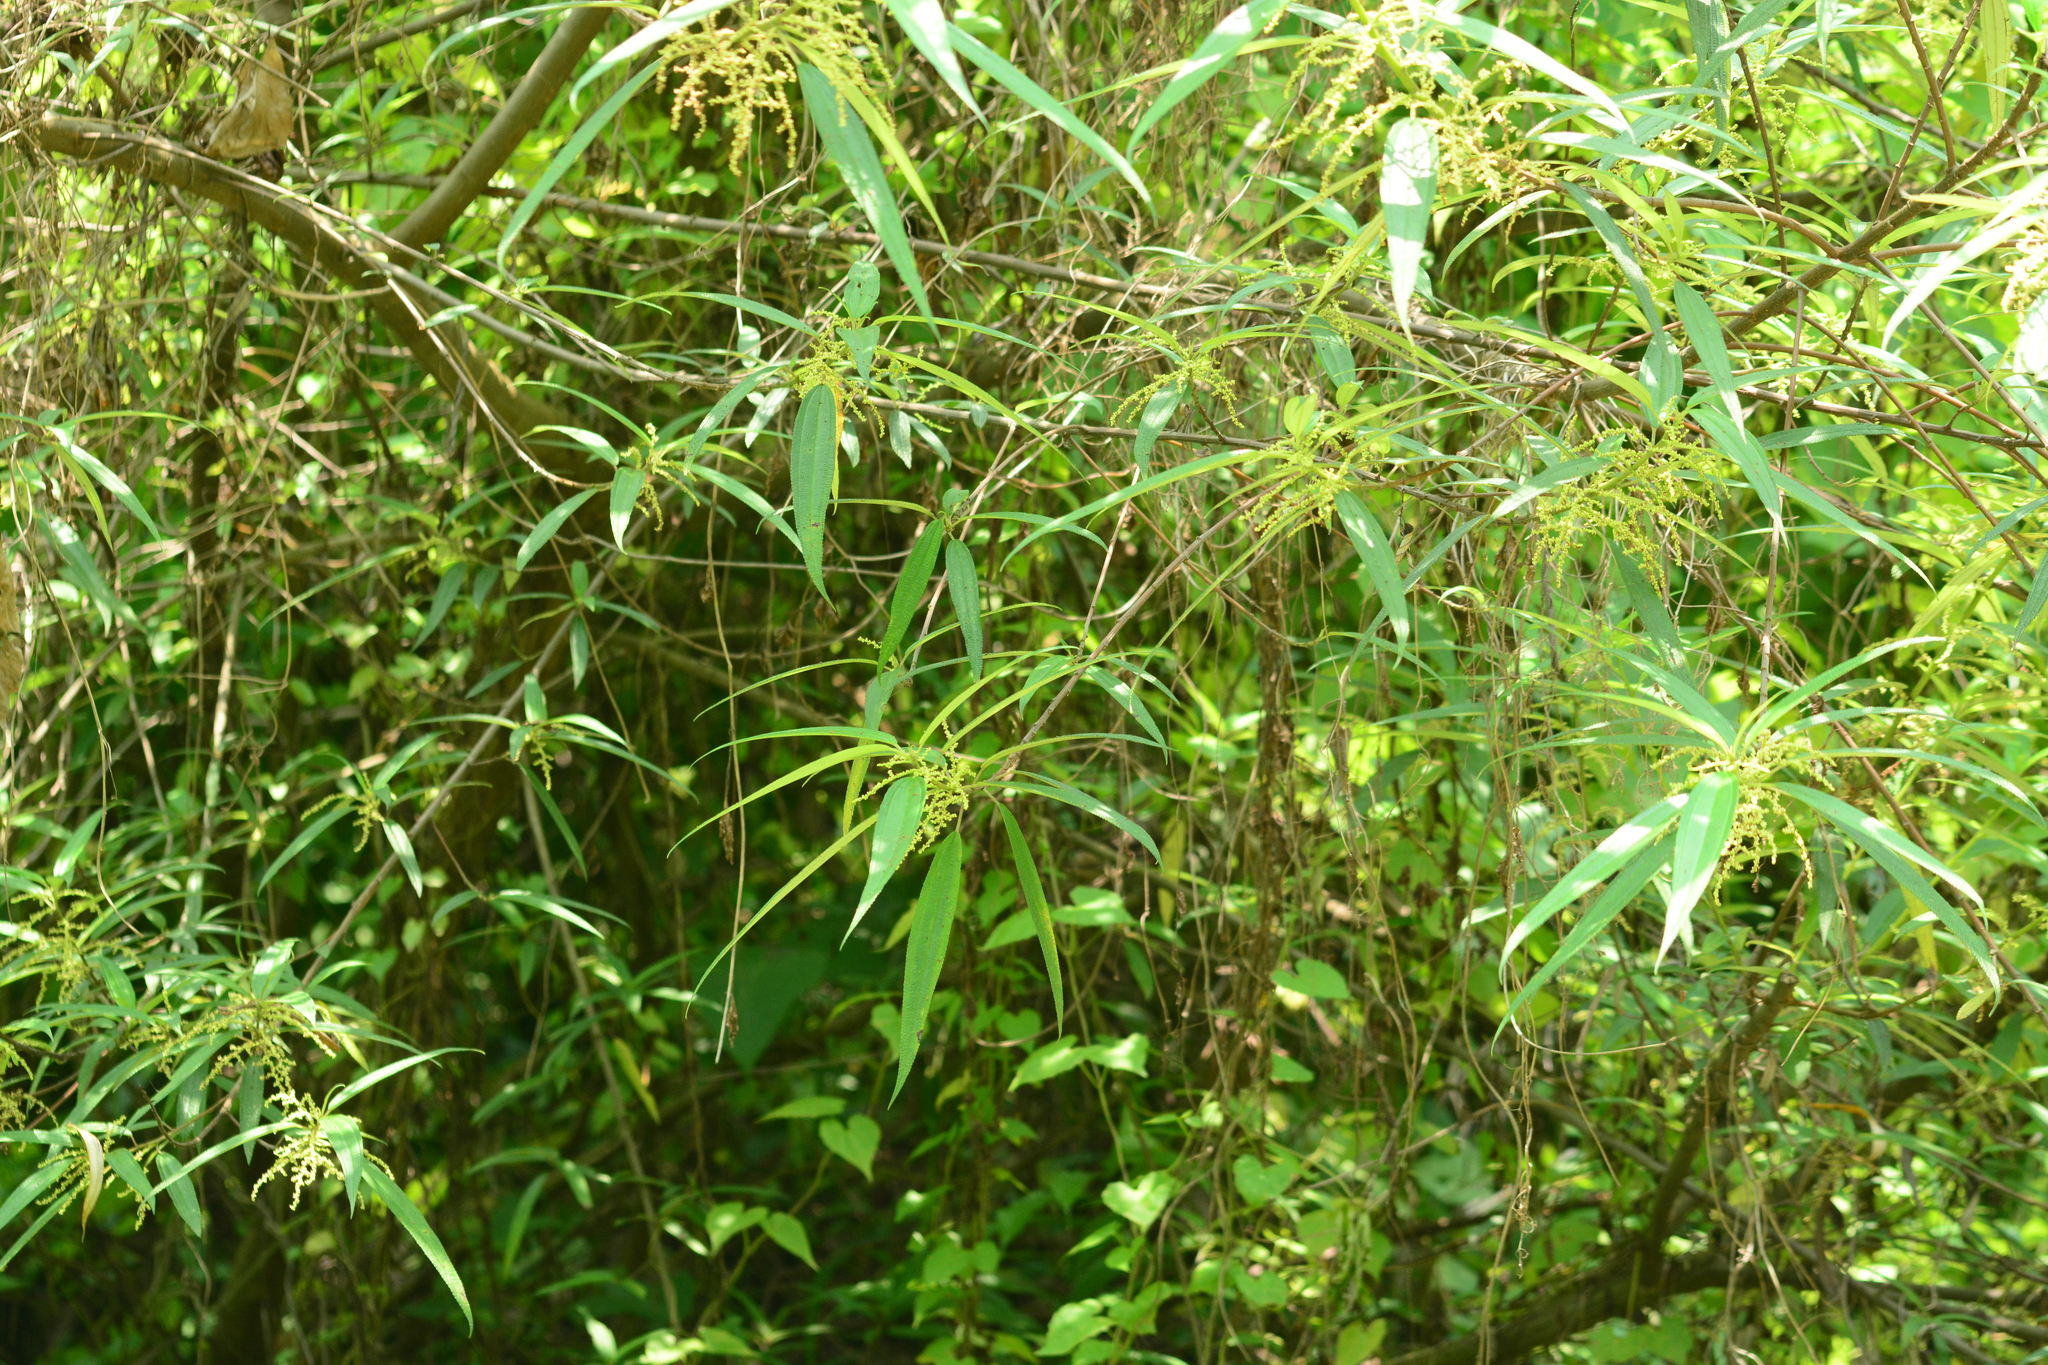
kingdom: Plantae
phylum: Tracheophyta
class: Magnoliopsida
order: Rosales
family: Urticaceae
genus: Sarcochlamys
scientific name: Sarcochlamys pulcherrima
